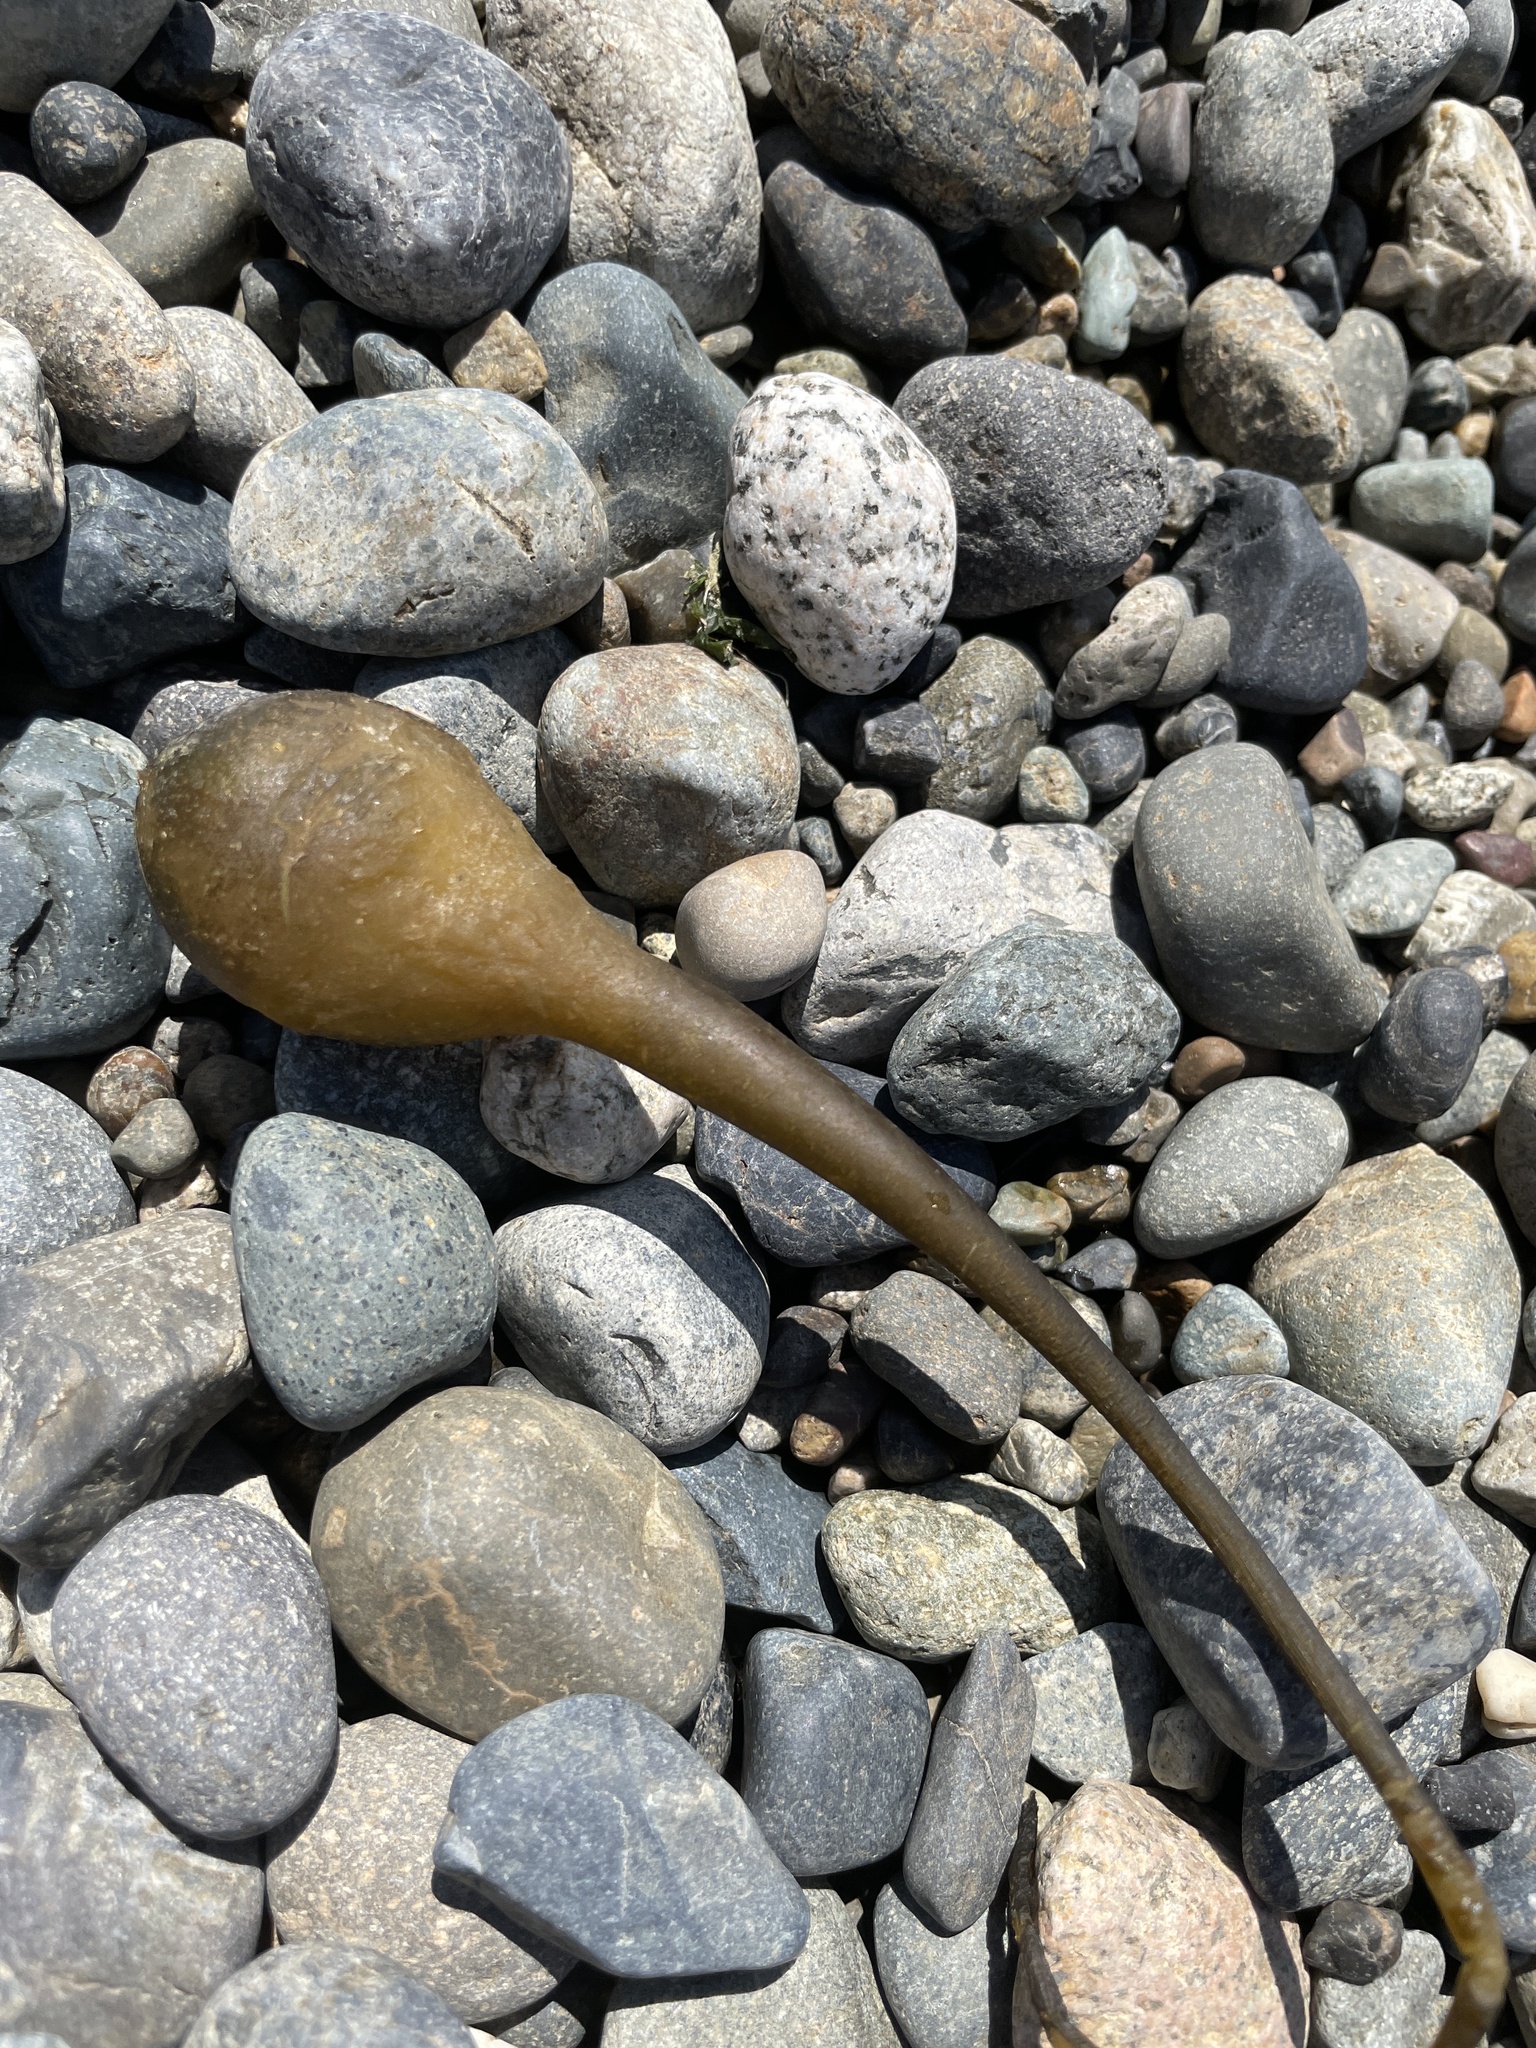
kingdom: Chromista
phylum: Ochrophyta
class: Phaeophyceae
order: Laminariales
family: Laminariaceae
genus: Nereocystis
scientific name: Nereocystis luetkeana
